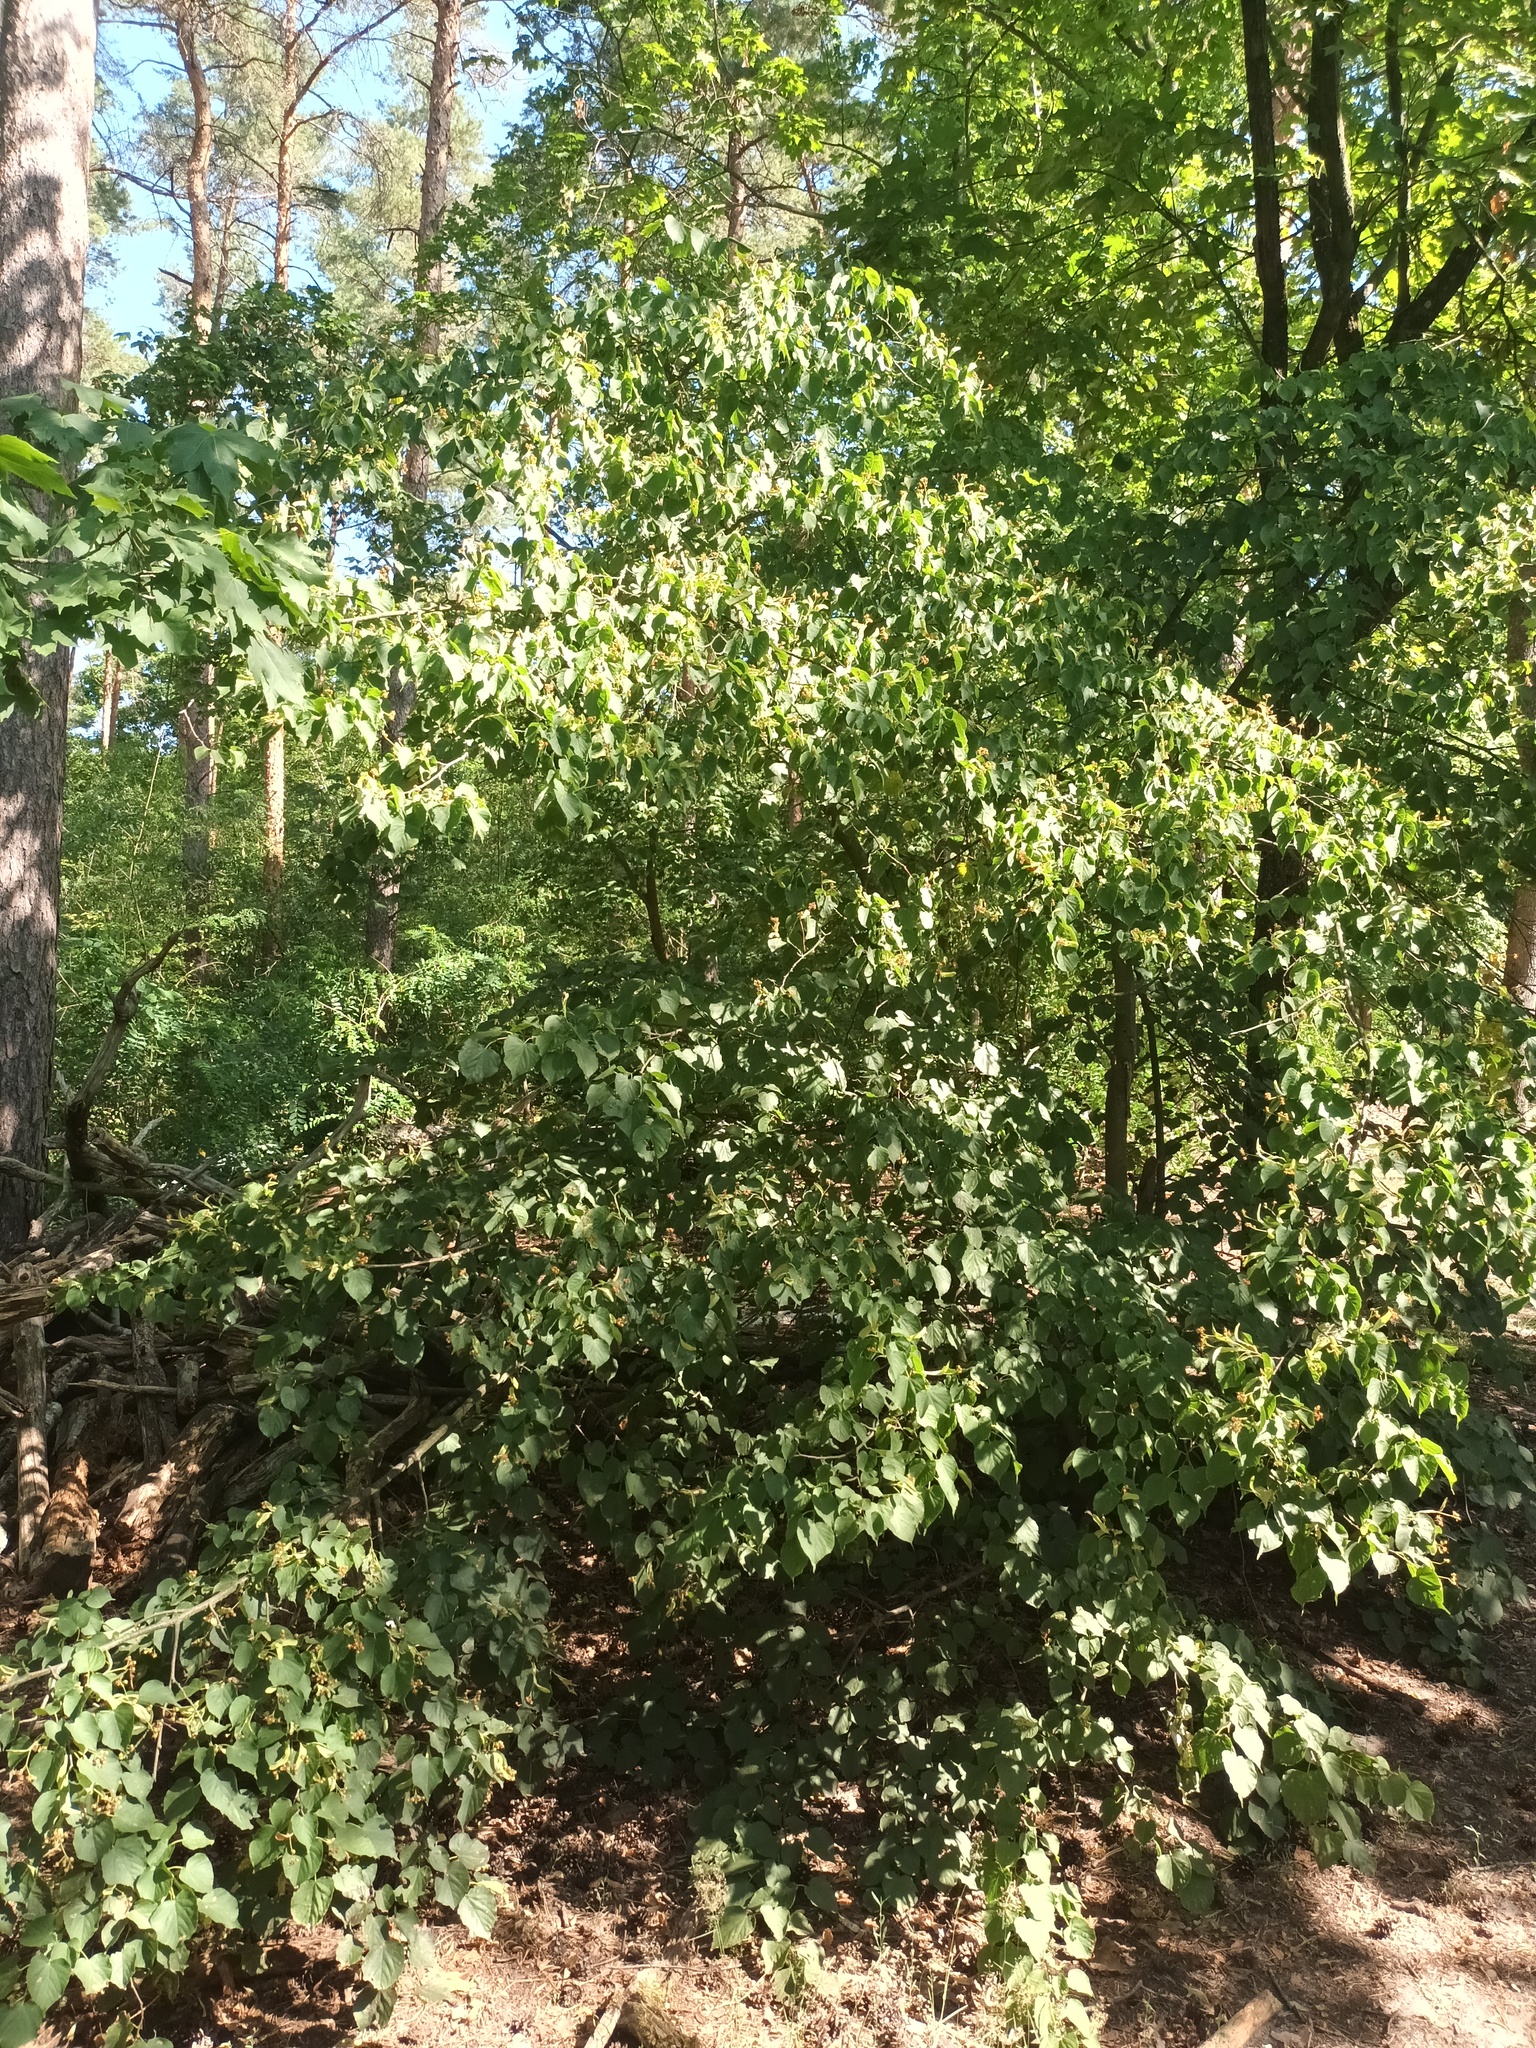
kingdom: Plantae
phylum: Tracheophyta
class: Magnoliopsida
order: Malvales
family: Malvaceae
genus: Tilia
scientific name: Tilia cordata
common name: Small-leaved lime
